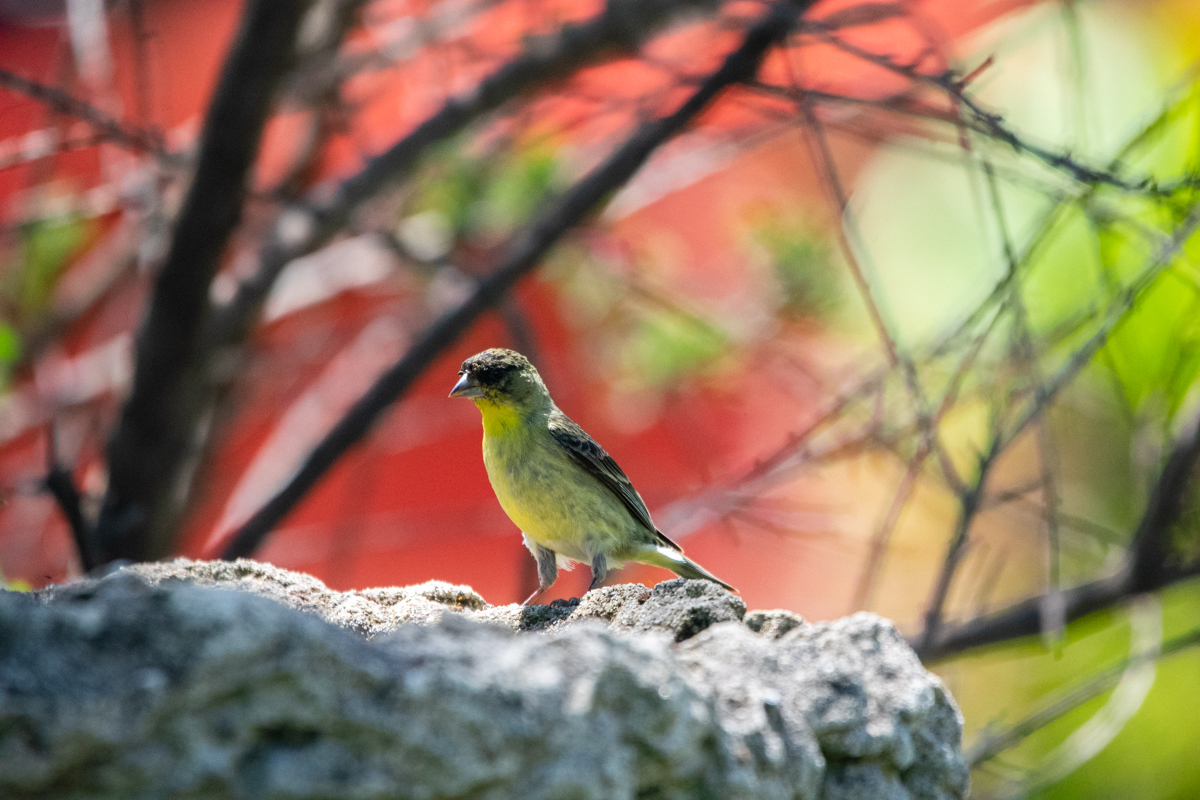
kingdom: Animalia
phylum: Chordata
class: Aves
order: Passeriformes
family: Fringillidae
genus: Spinus
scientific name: Spinus psaltria
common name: Lesser goldfinch
